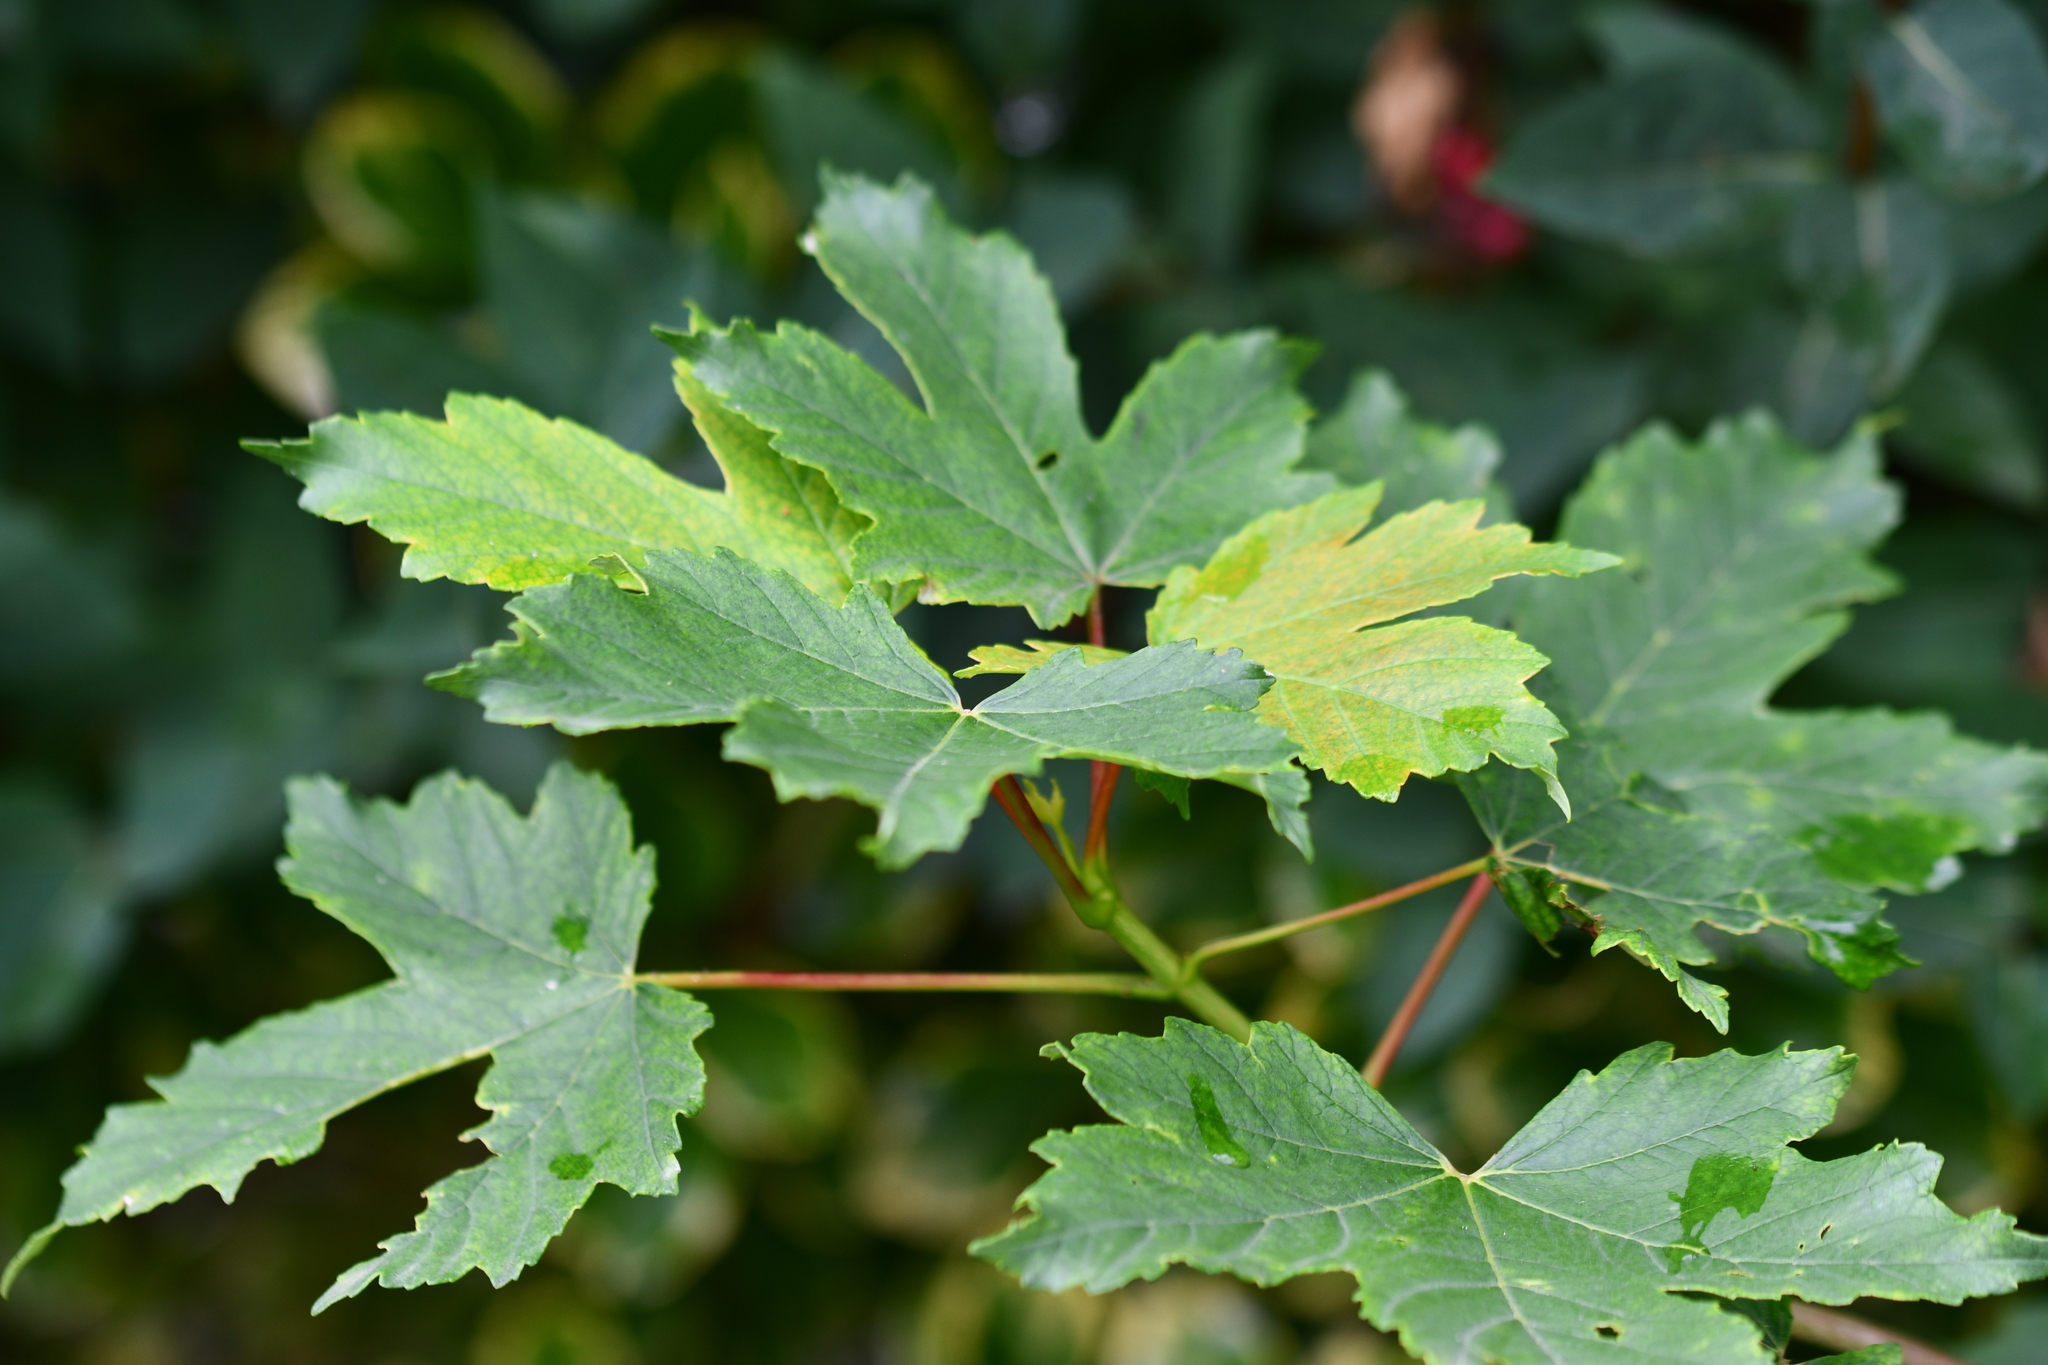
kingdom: Plantae
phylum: Tracheophyta
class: Magnoliopsida
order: Sapindales
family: Sapindaceae
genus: Acer
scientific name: Acer pseudoplatanus
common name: Sycamore
